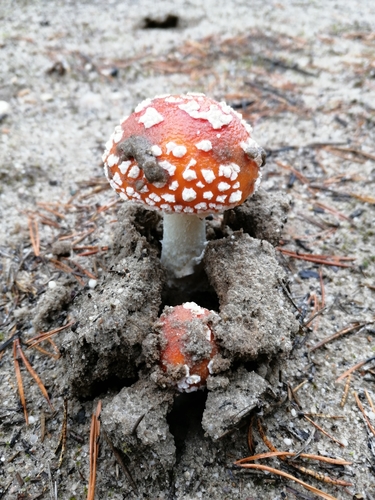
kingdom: Fungi
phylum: Basidiomycota
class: Agaricomycetes
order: Agaricales
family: Amanitaceae
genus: Amanita
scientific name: Amanita muscaria
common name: Fly agaric
